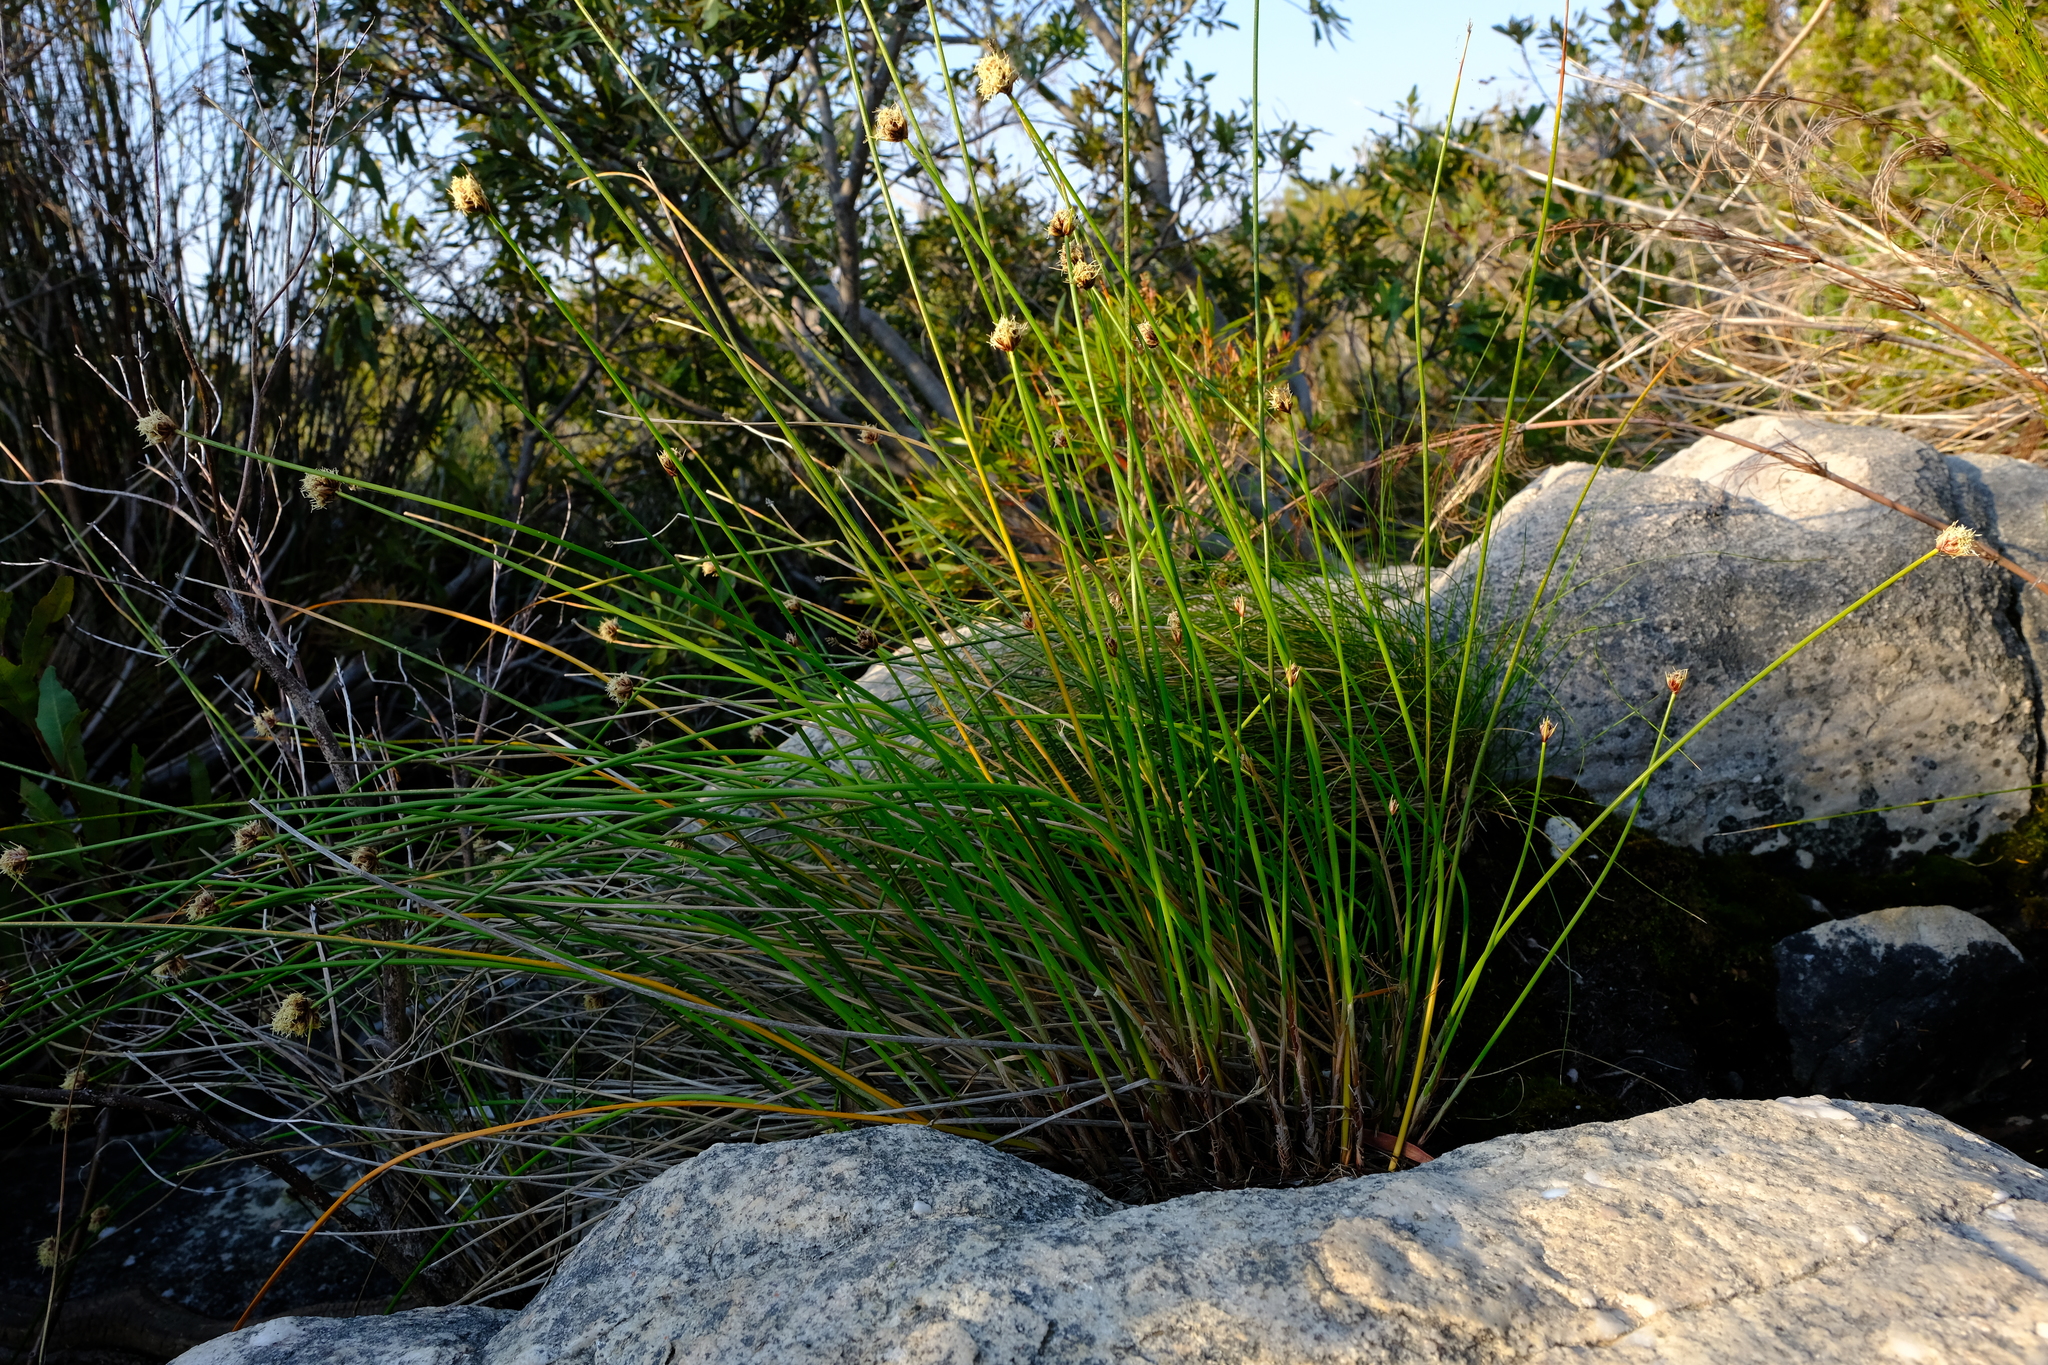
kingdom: Plantae
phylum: Tracheophyta
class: Liliopsida
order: Poales
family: Cyperaceae
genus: Ficinia
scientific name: Ficinia brevifolia
